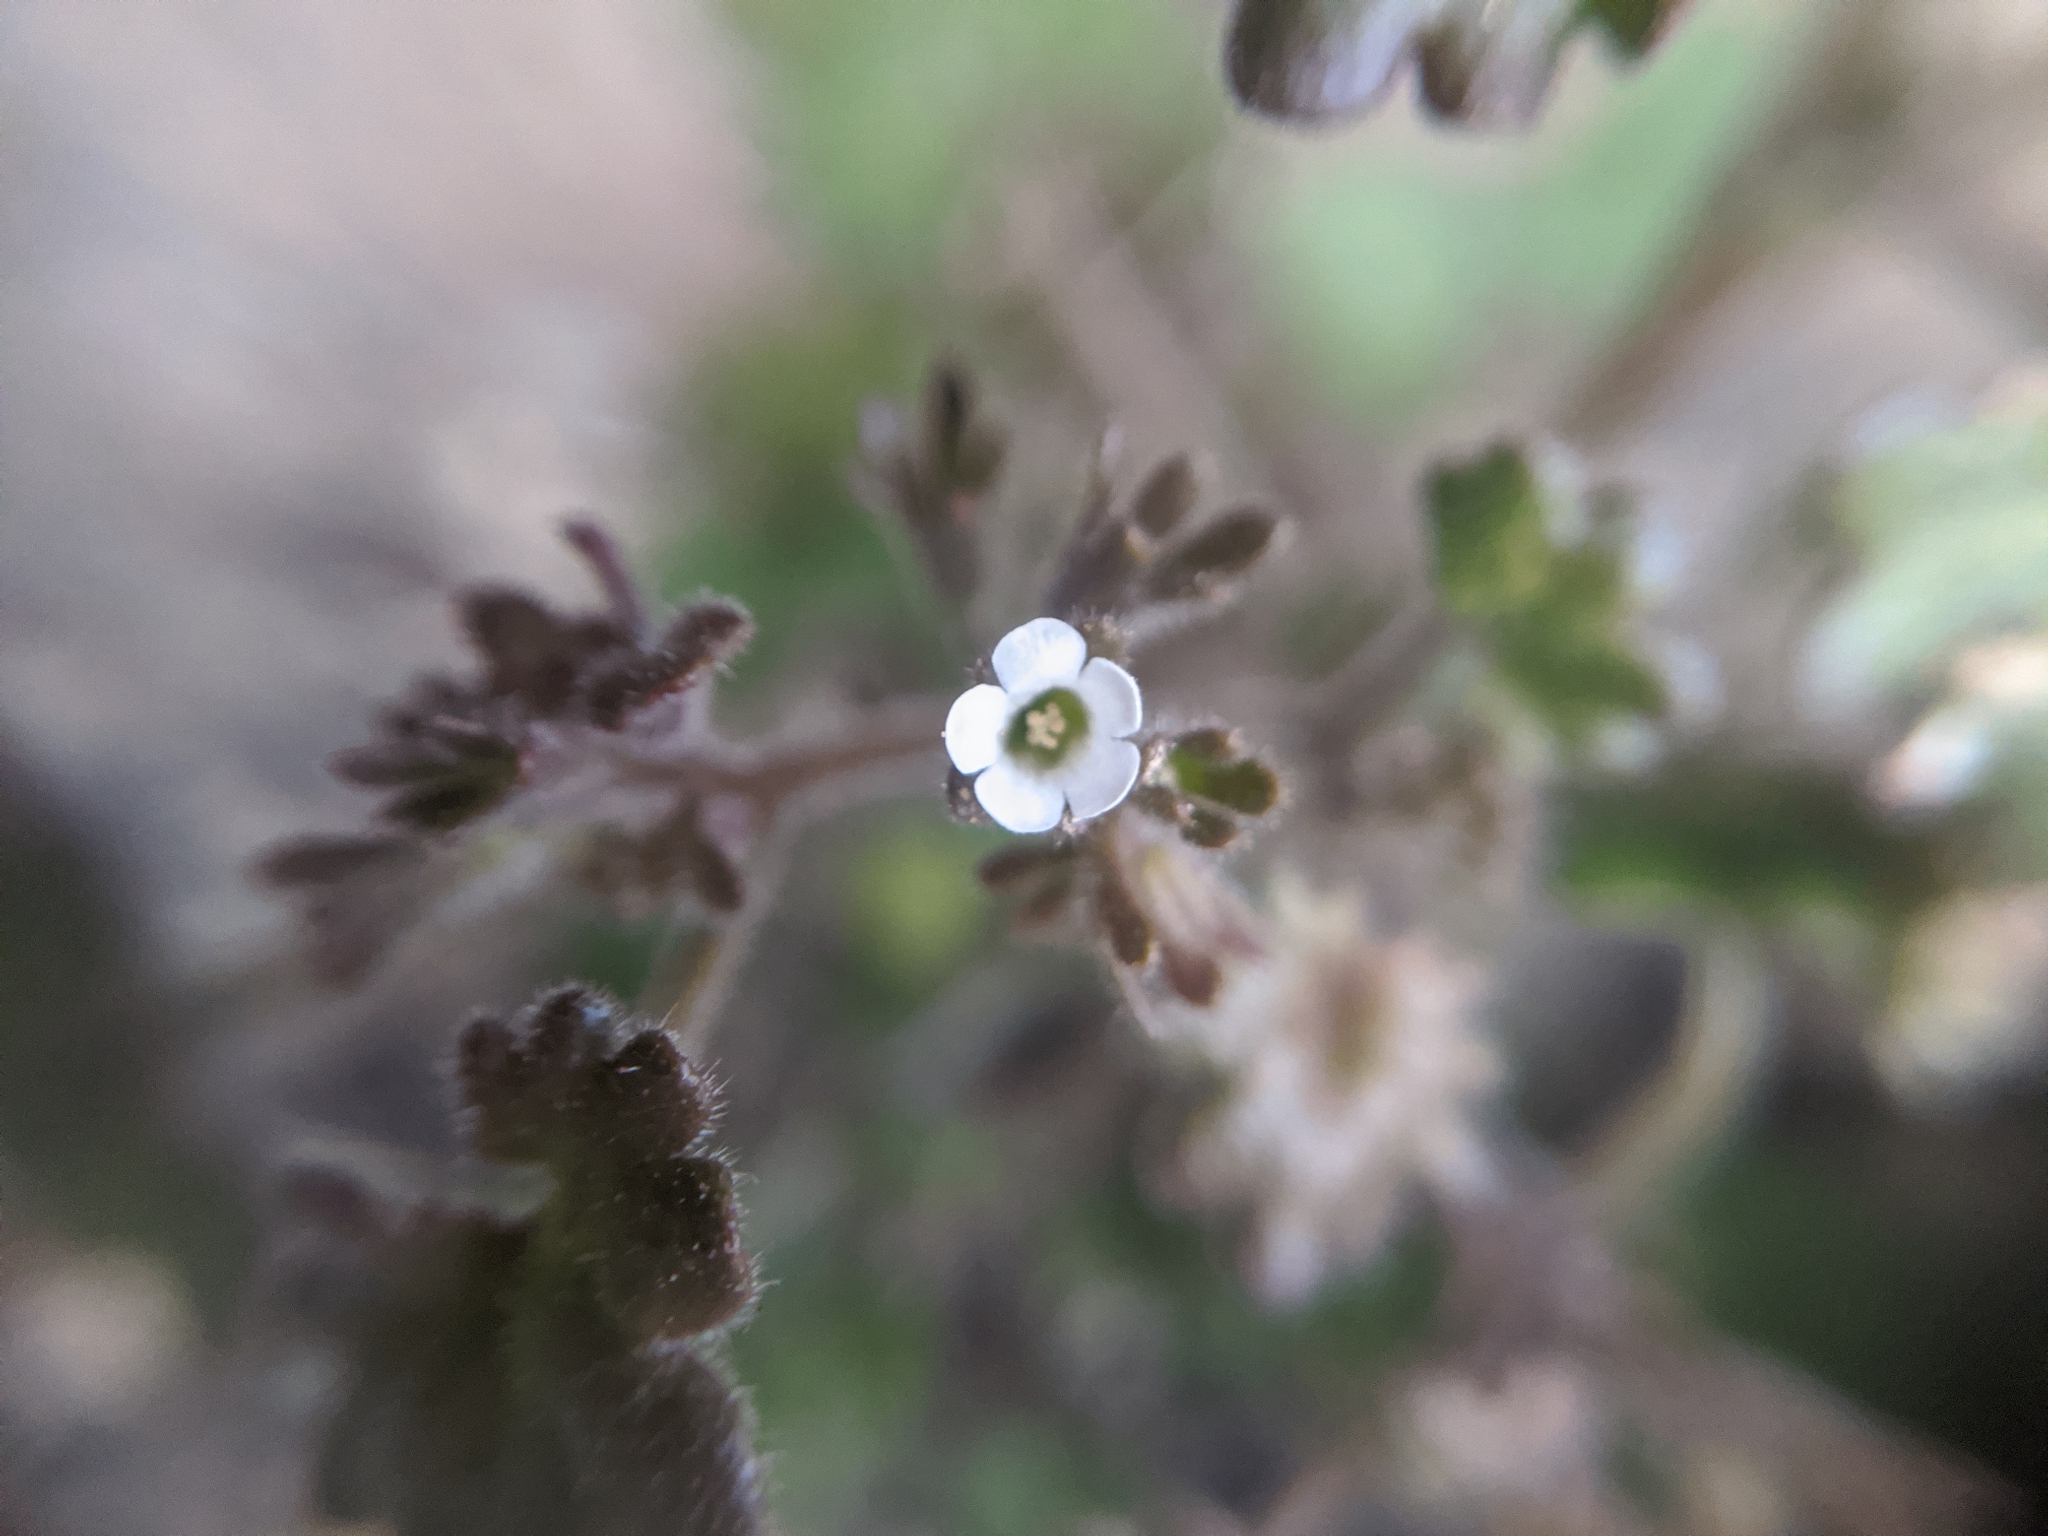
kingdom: Plantae
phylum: Tracheophyta
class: Magnoliopsida
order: Boraginales
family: Hydrophyllaceae
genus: Phacelia
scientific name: Phacelia rotundifolia
